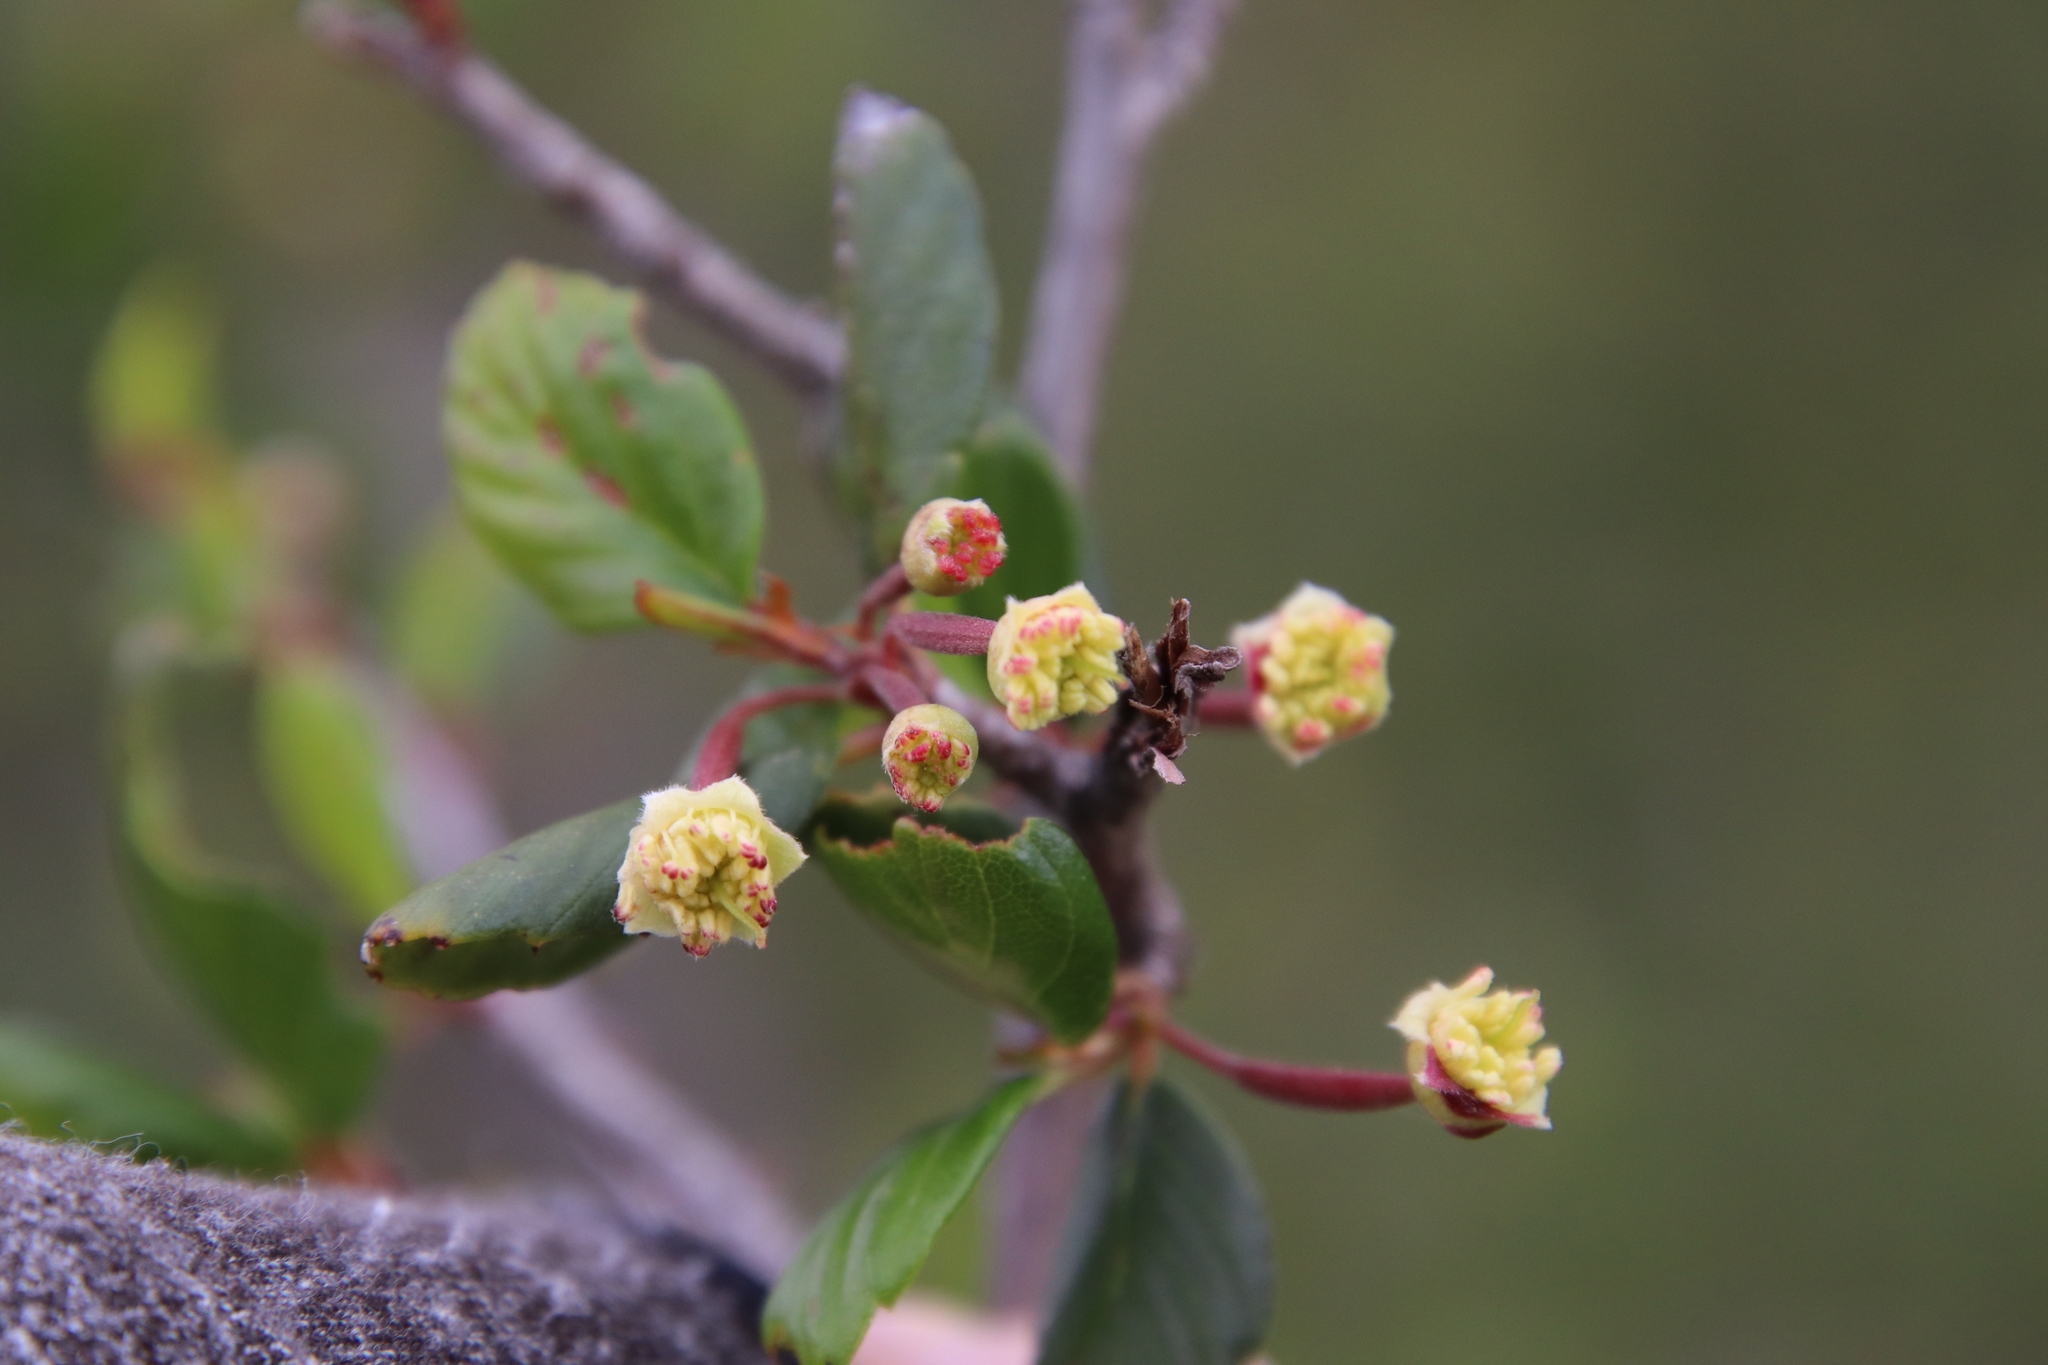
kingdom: Plantae
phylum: Tracheophyta
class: Magnoliopsida
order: Rosales
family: Rosaceae
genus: Cercocarpus
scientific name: Cercocarpus montanus
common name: Alder-leaf cercocarpus
